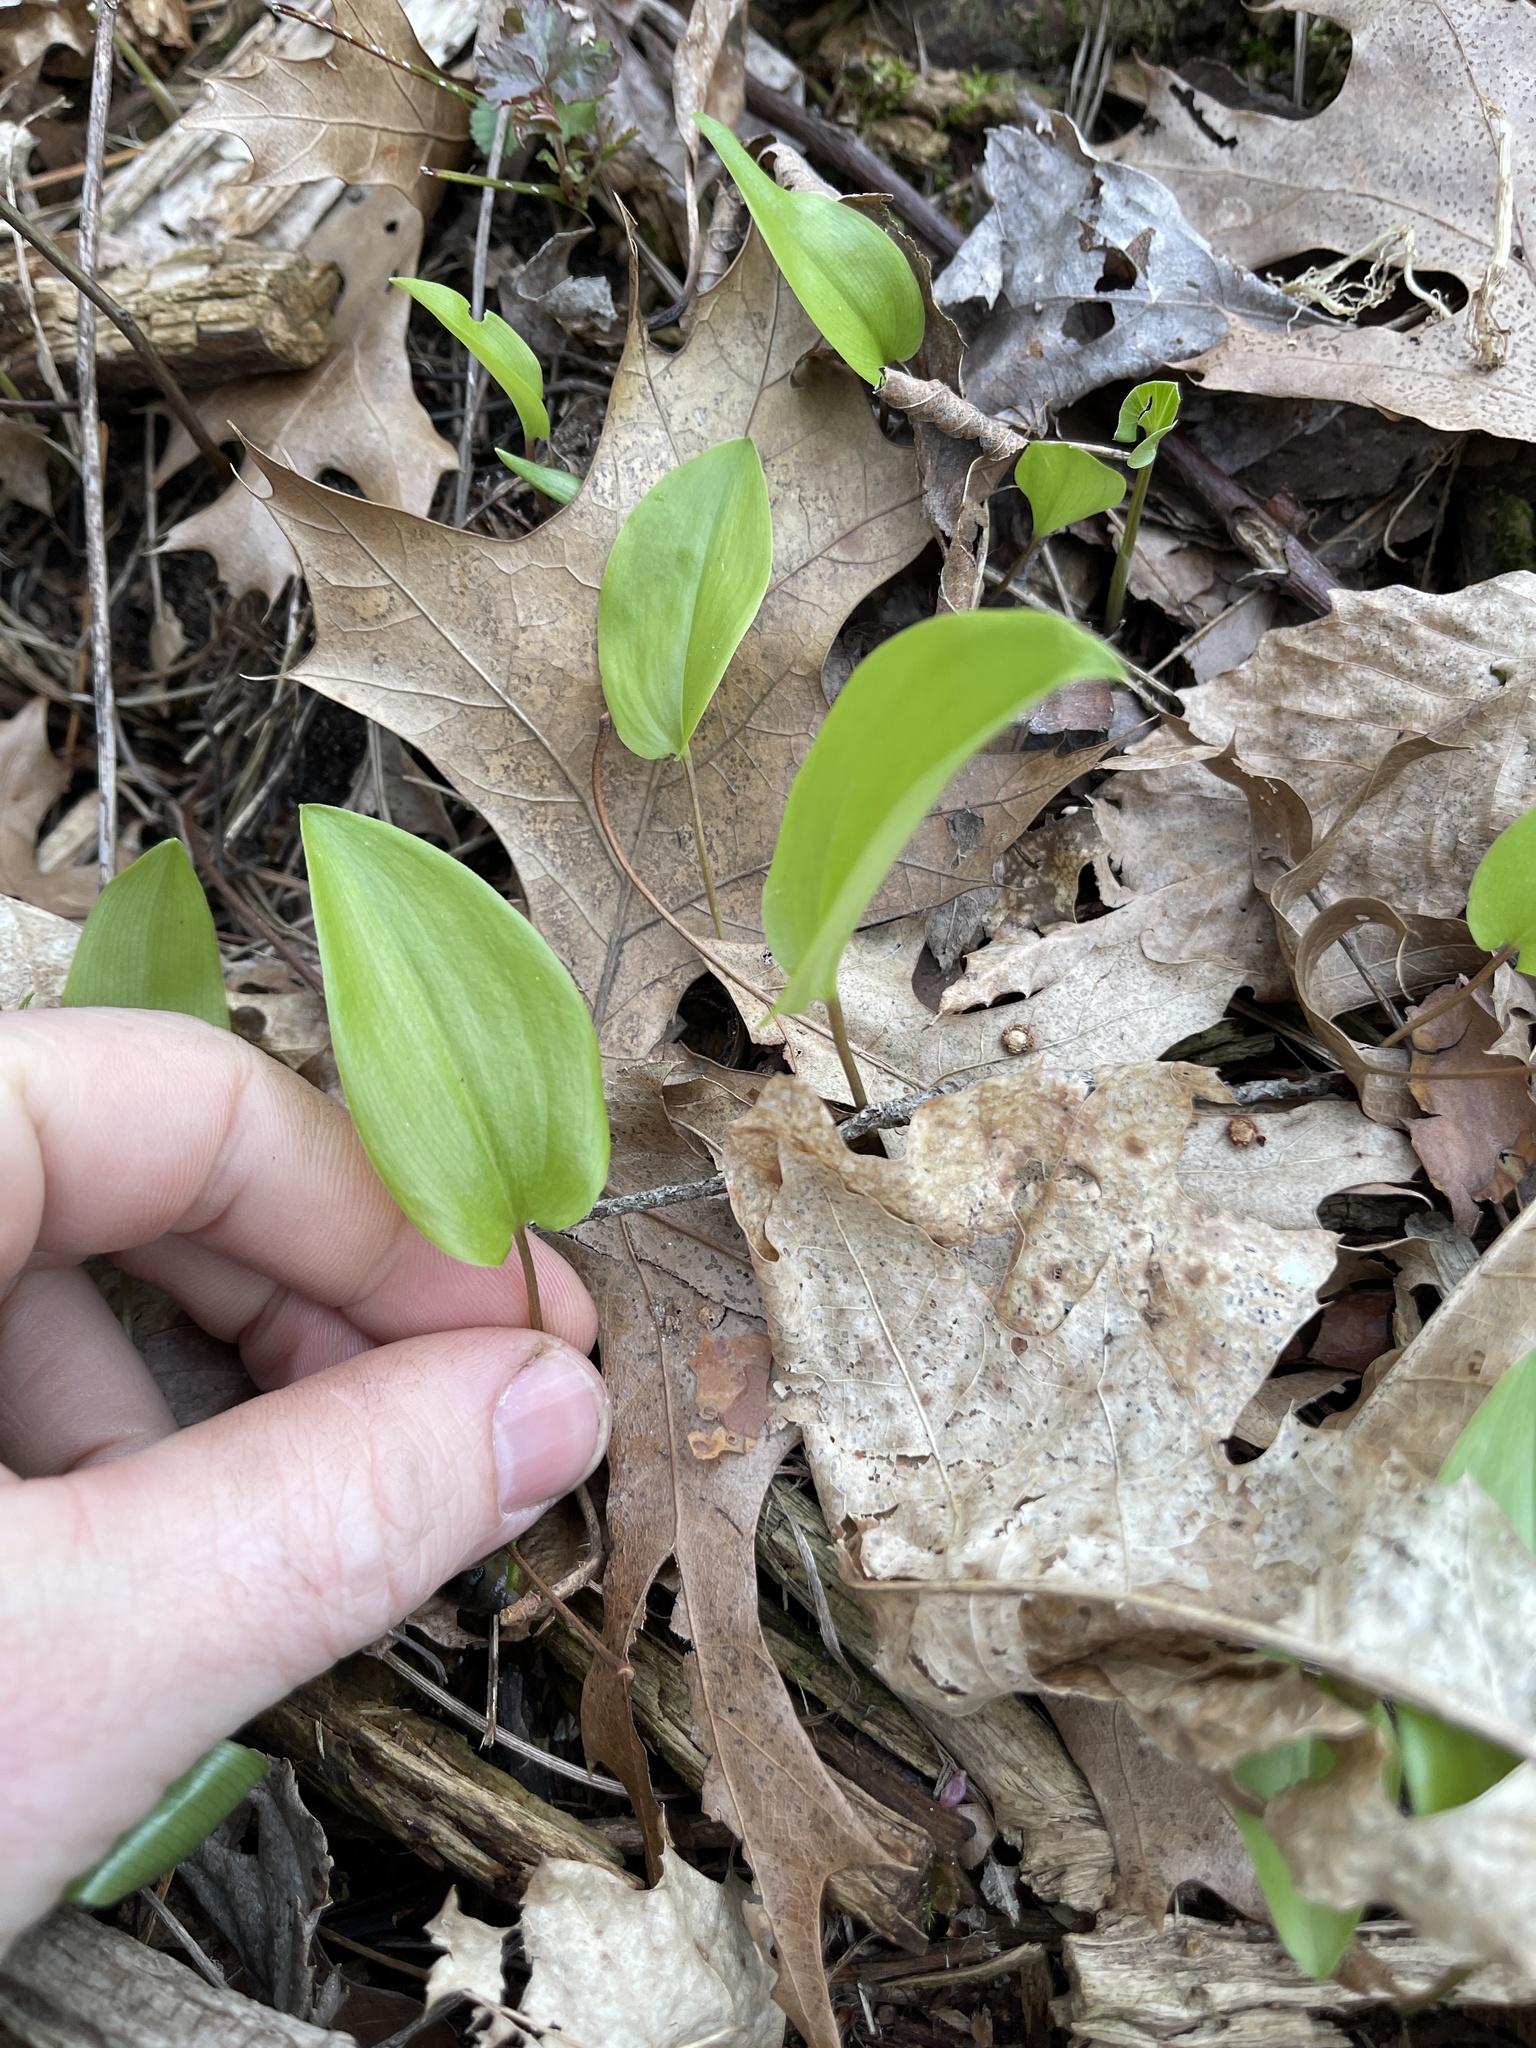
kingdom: Plantae
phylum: Tracheophyta
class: Liliopsida
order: Asparagales
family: Asparagaceae
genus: Maianthemum
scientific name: Maianthemum canadense
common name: False lily-of-the-valley
